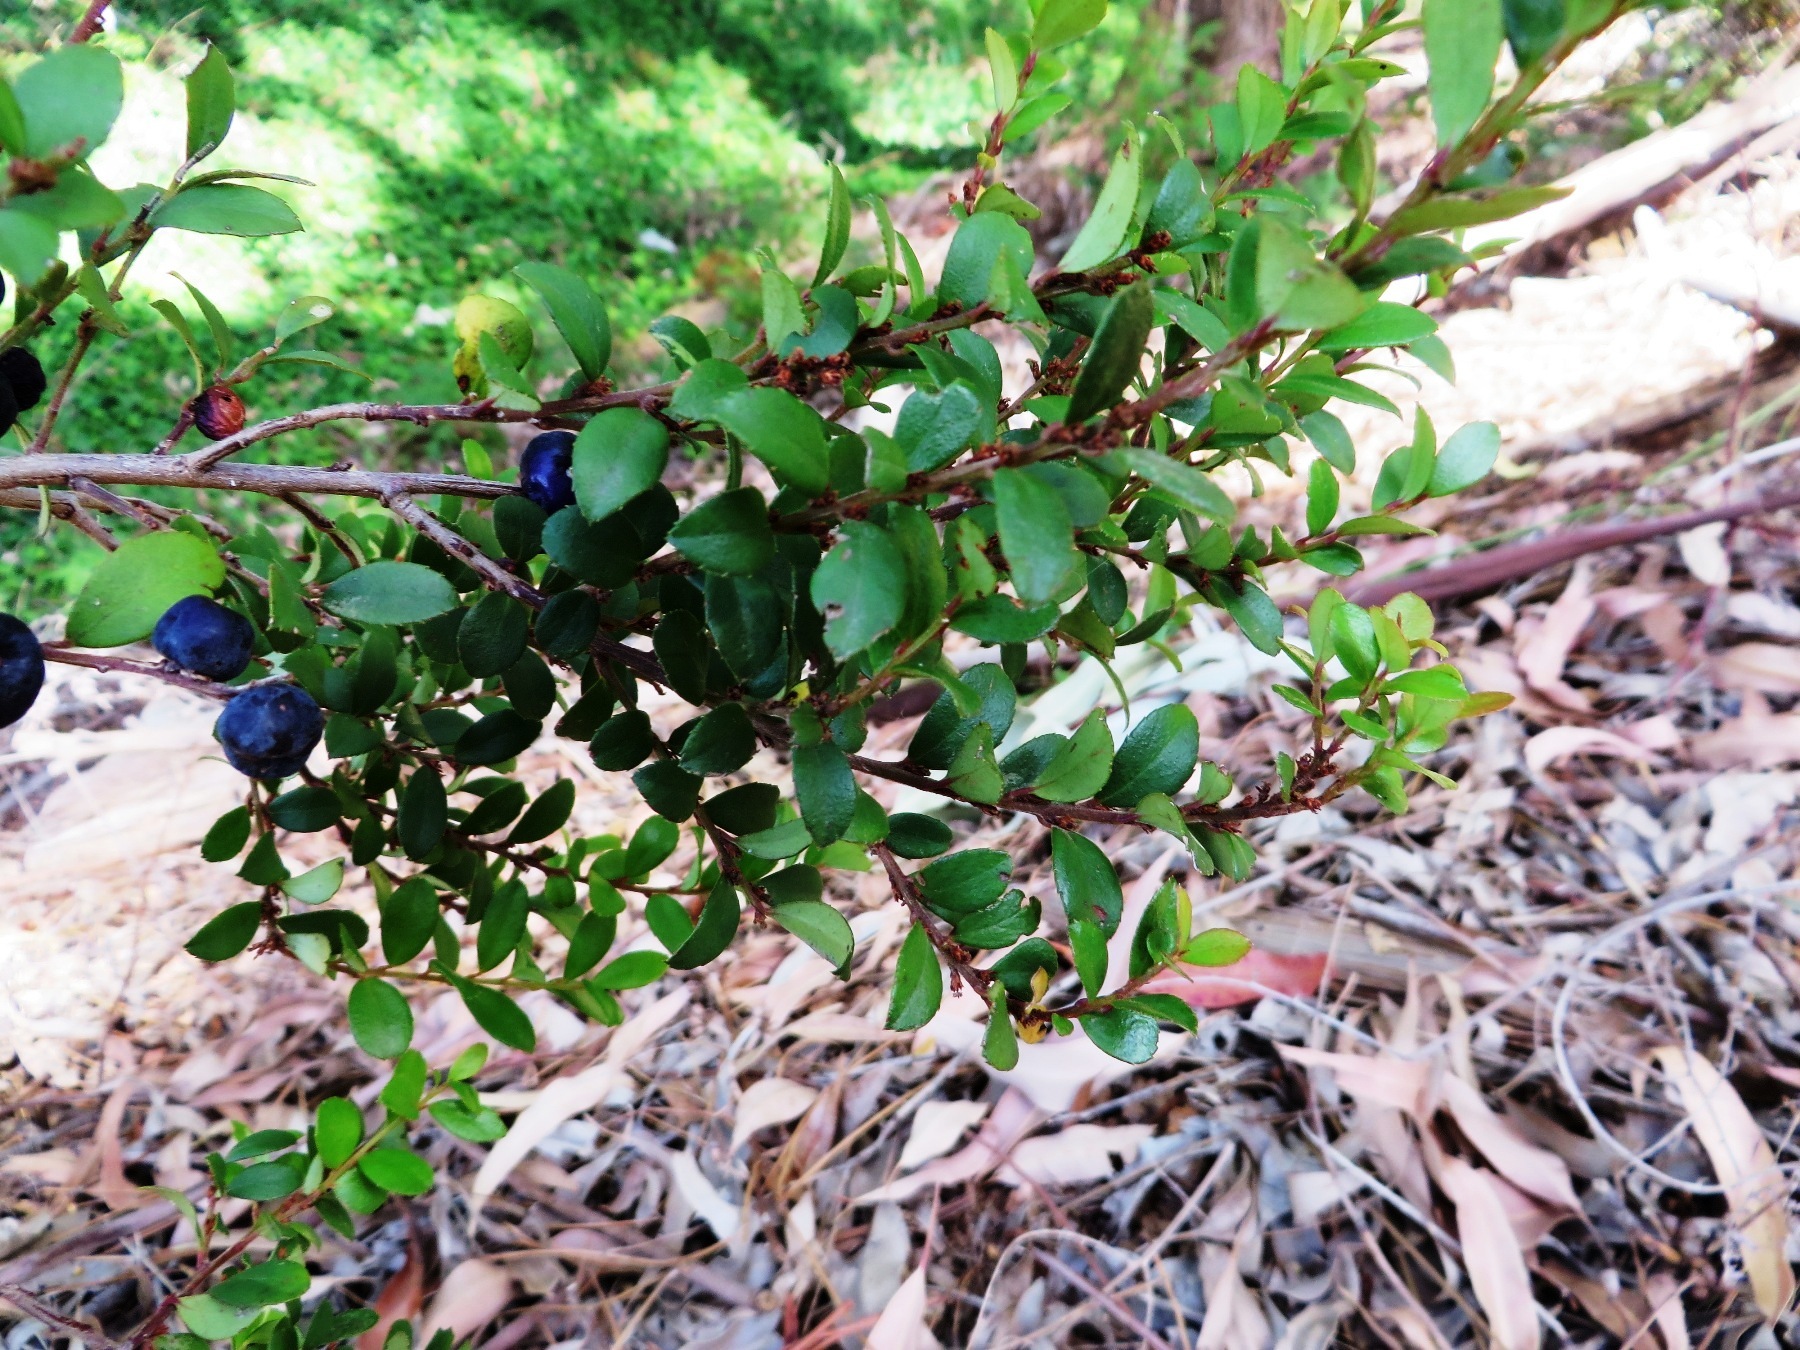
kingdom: Plantae
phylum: Tracheophyta
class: Magnoliopsida
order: Ericales
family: Primulaceae
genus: Myrsine
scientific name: Myrsine africana
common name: African-boxwood
